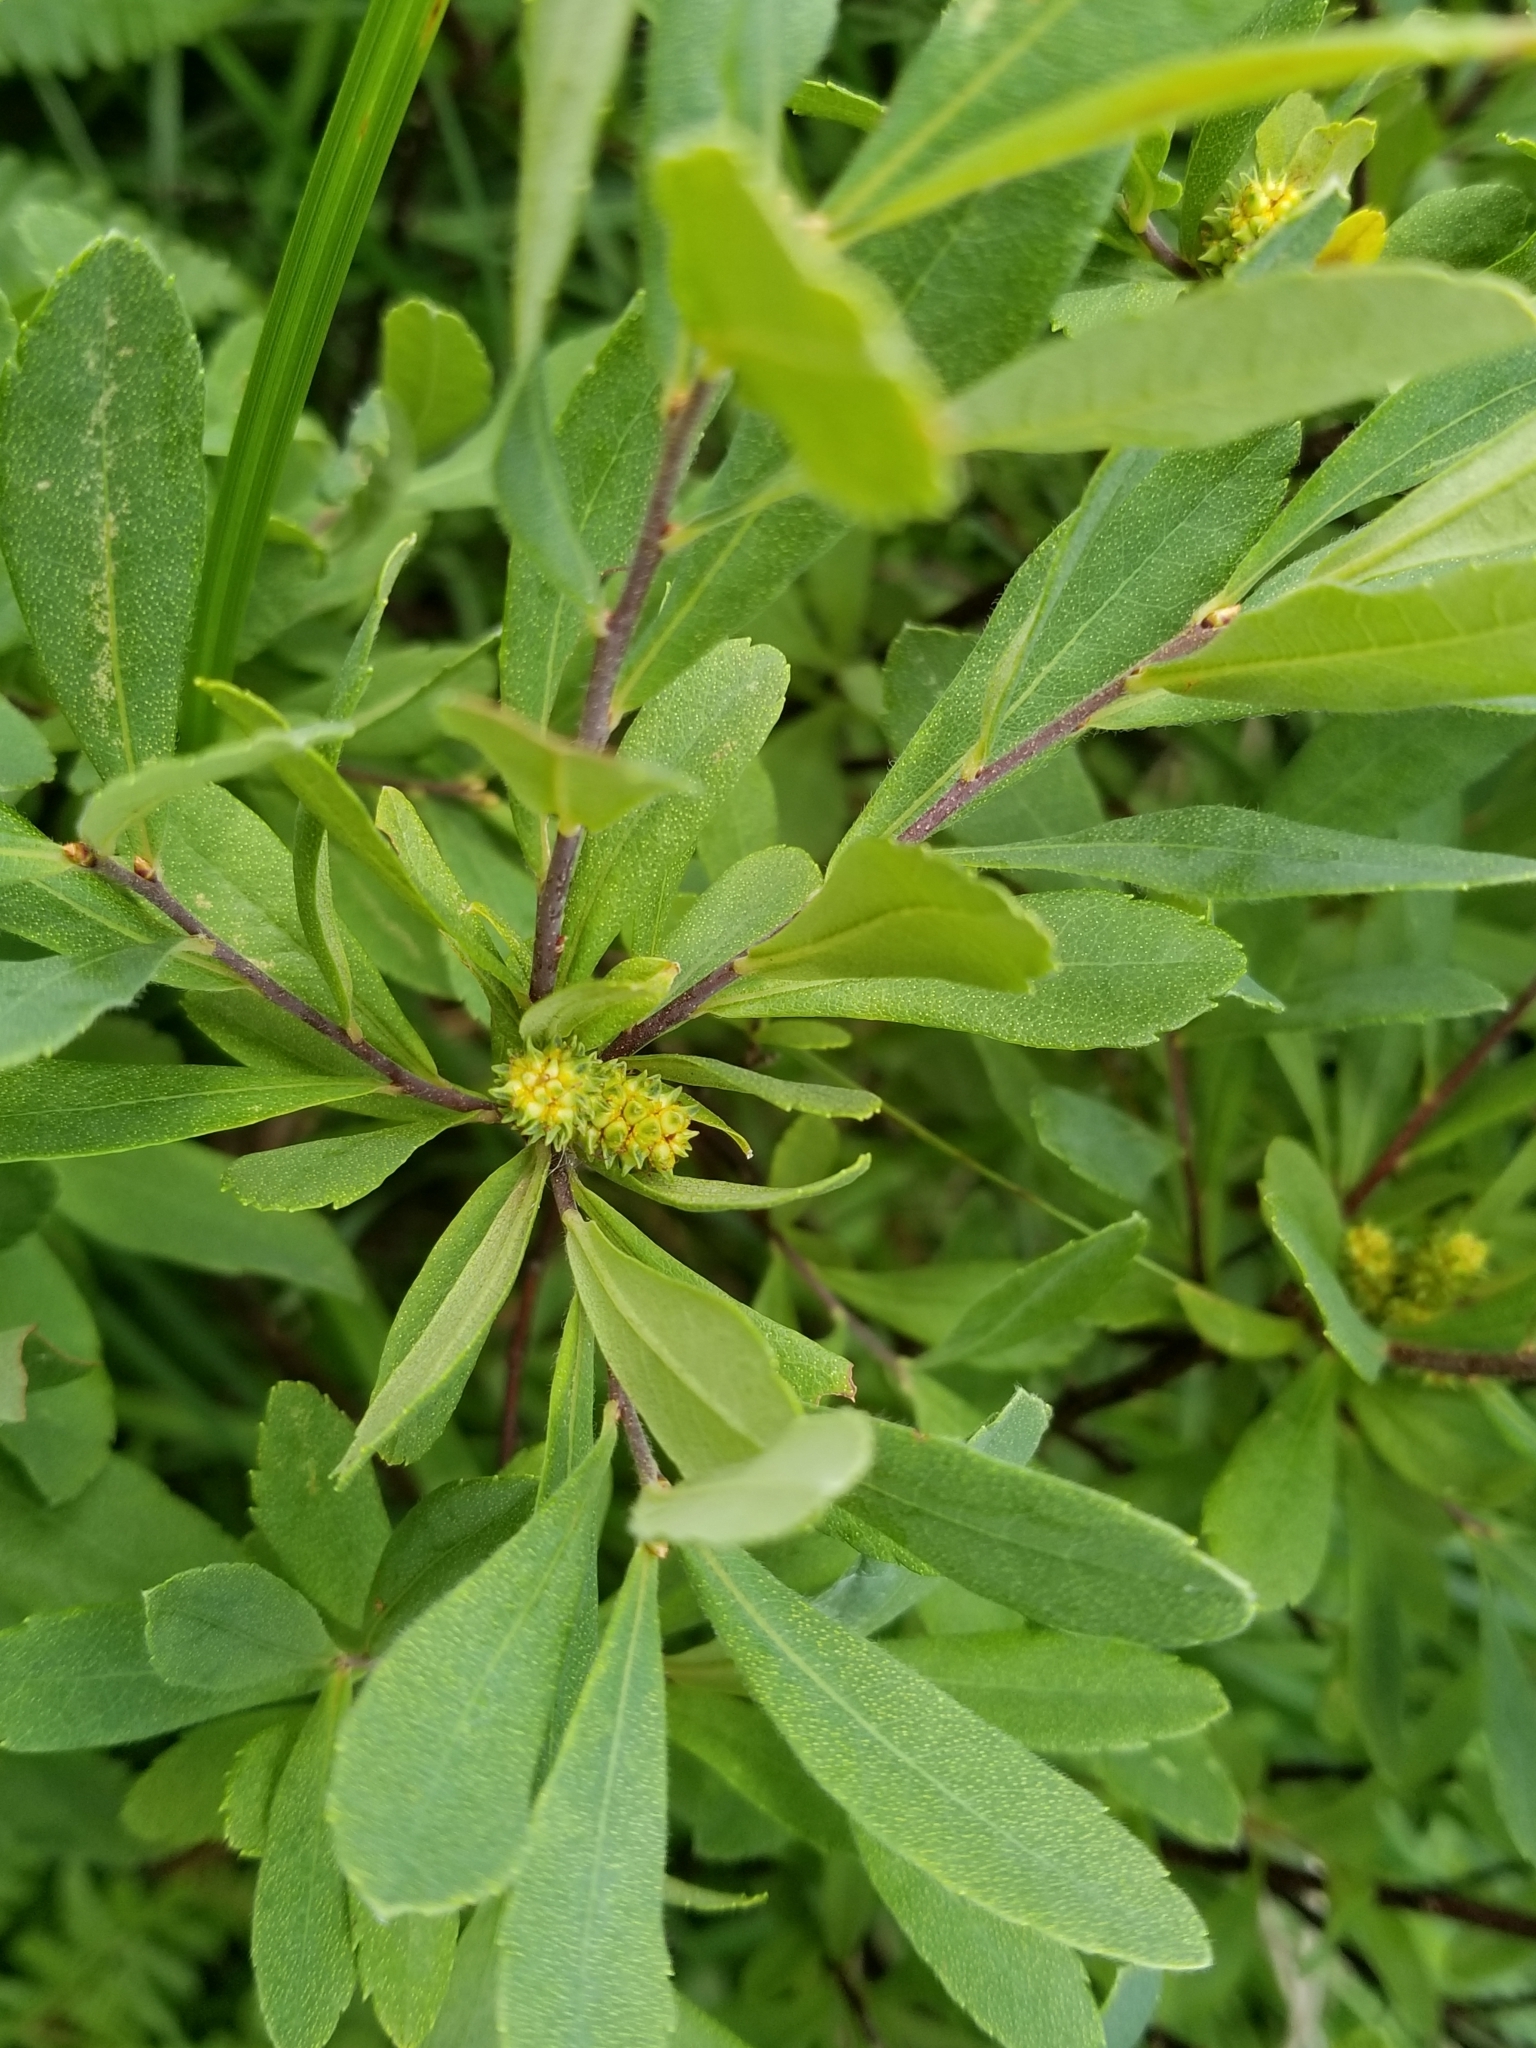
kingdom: Plantae
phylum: Tracheophyta
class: Magnoliopsida
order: Fagales
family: Myricaceae
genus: Myrica
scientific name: Myrica gale
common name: Sweet gale
